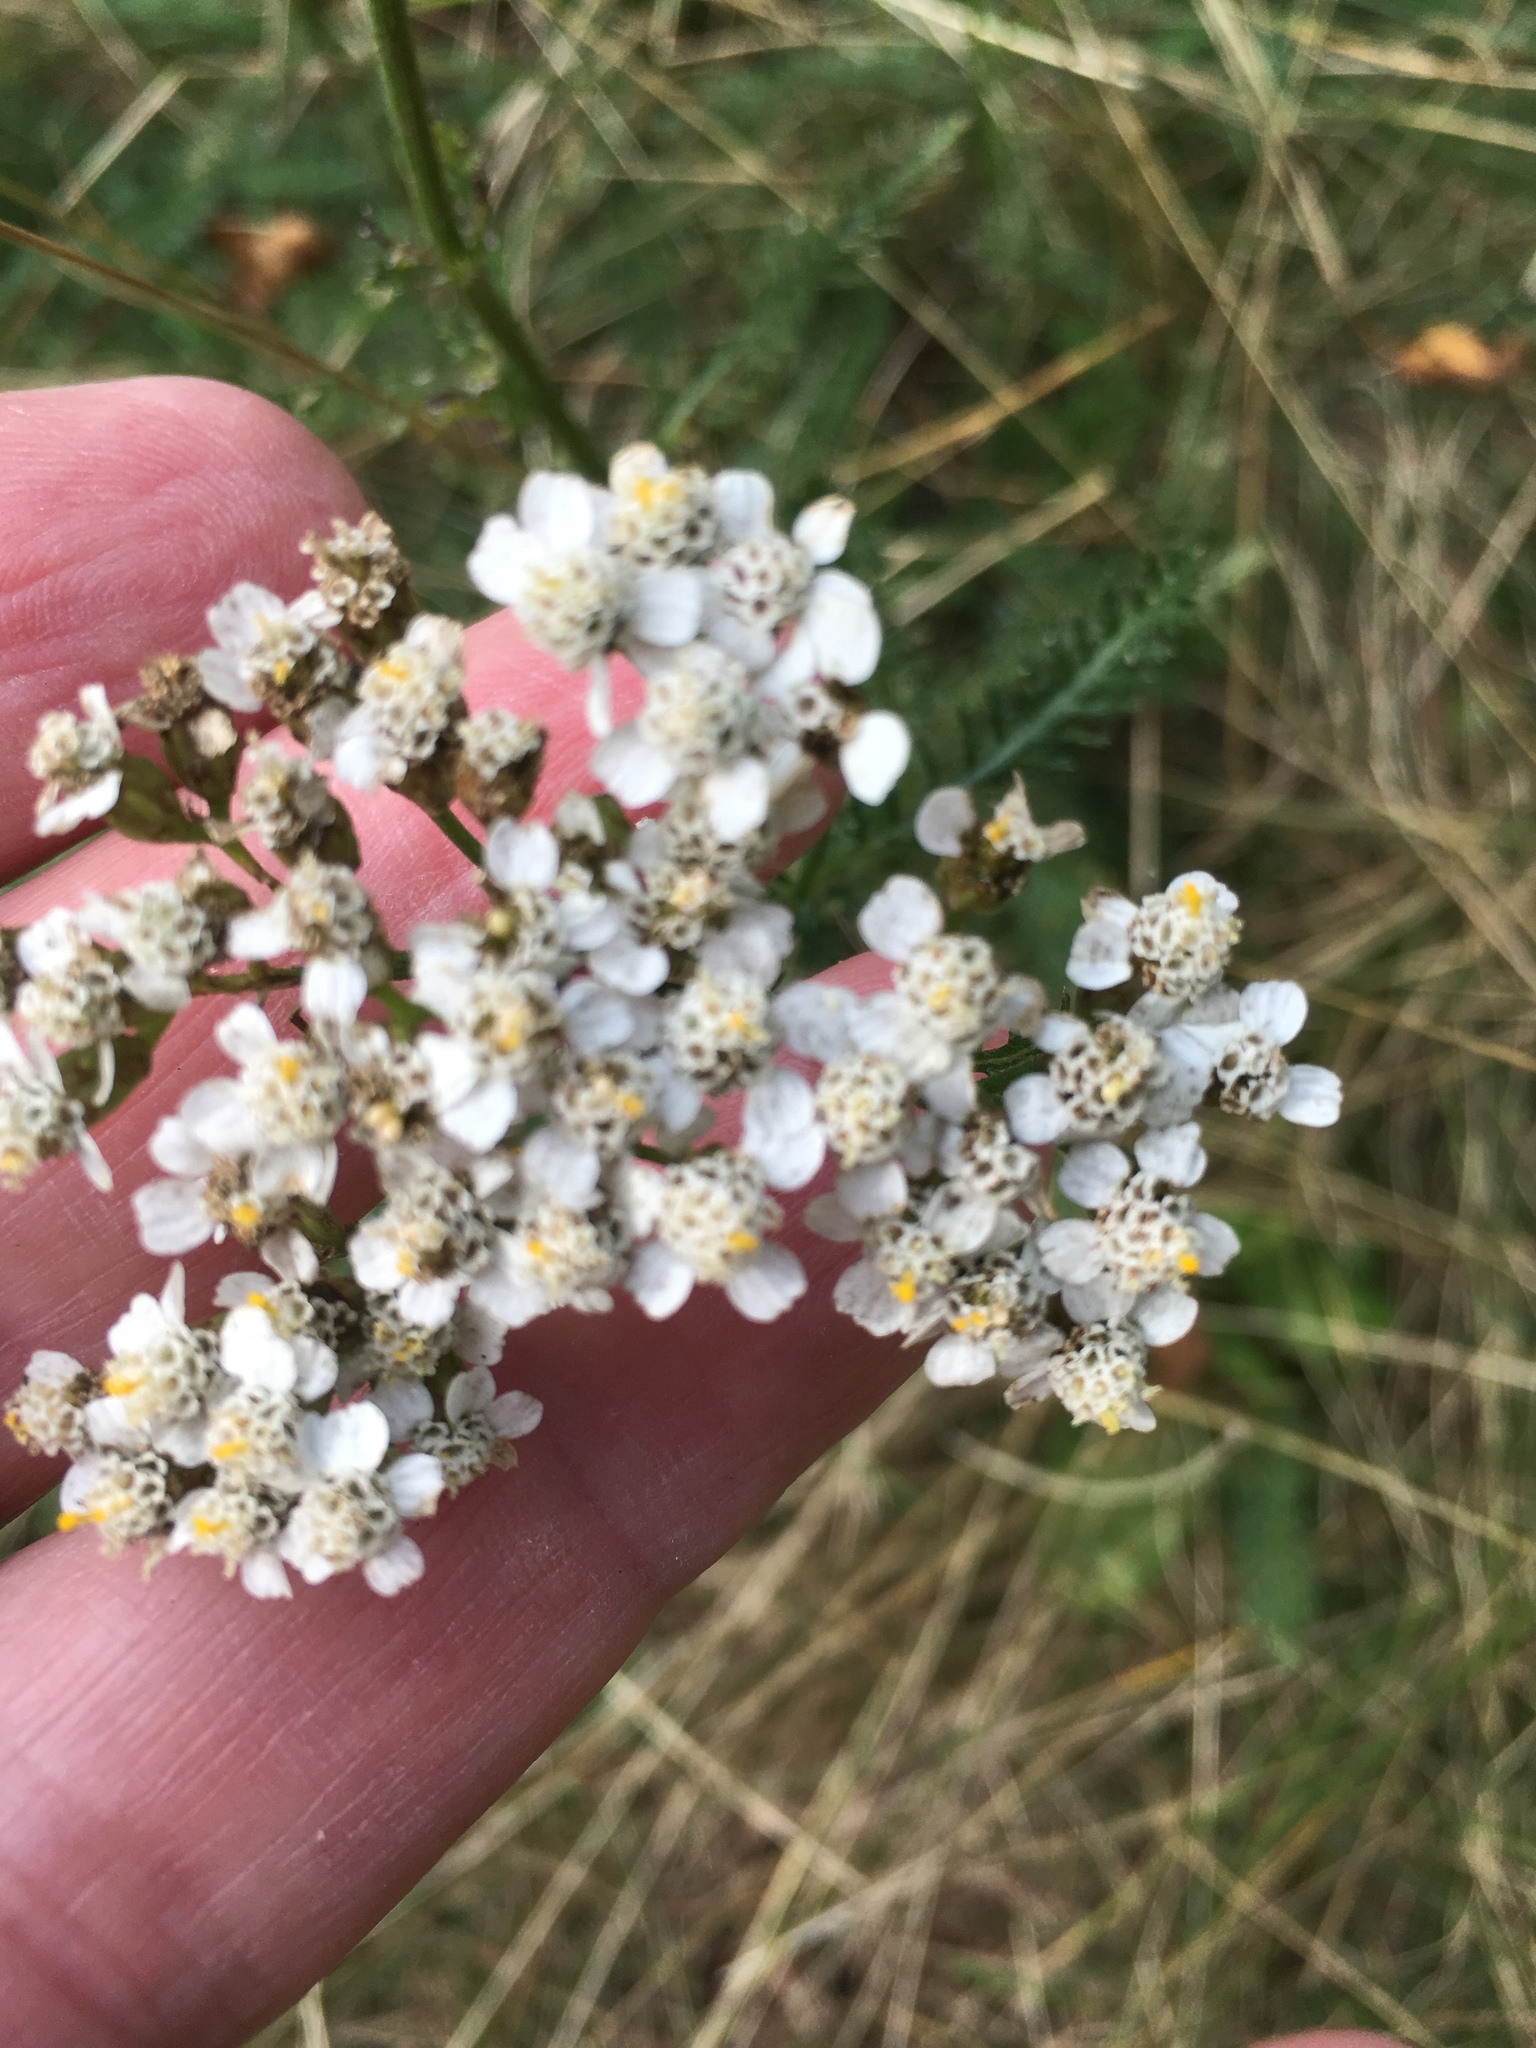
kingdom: Plantae
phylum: Tracheophyta
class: Magnoliopsida
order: Asterales
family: Asteraceae
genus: Achillea
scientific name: Achillea millefolium
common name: Yarrow
